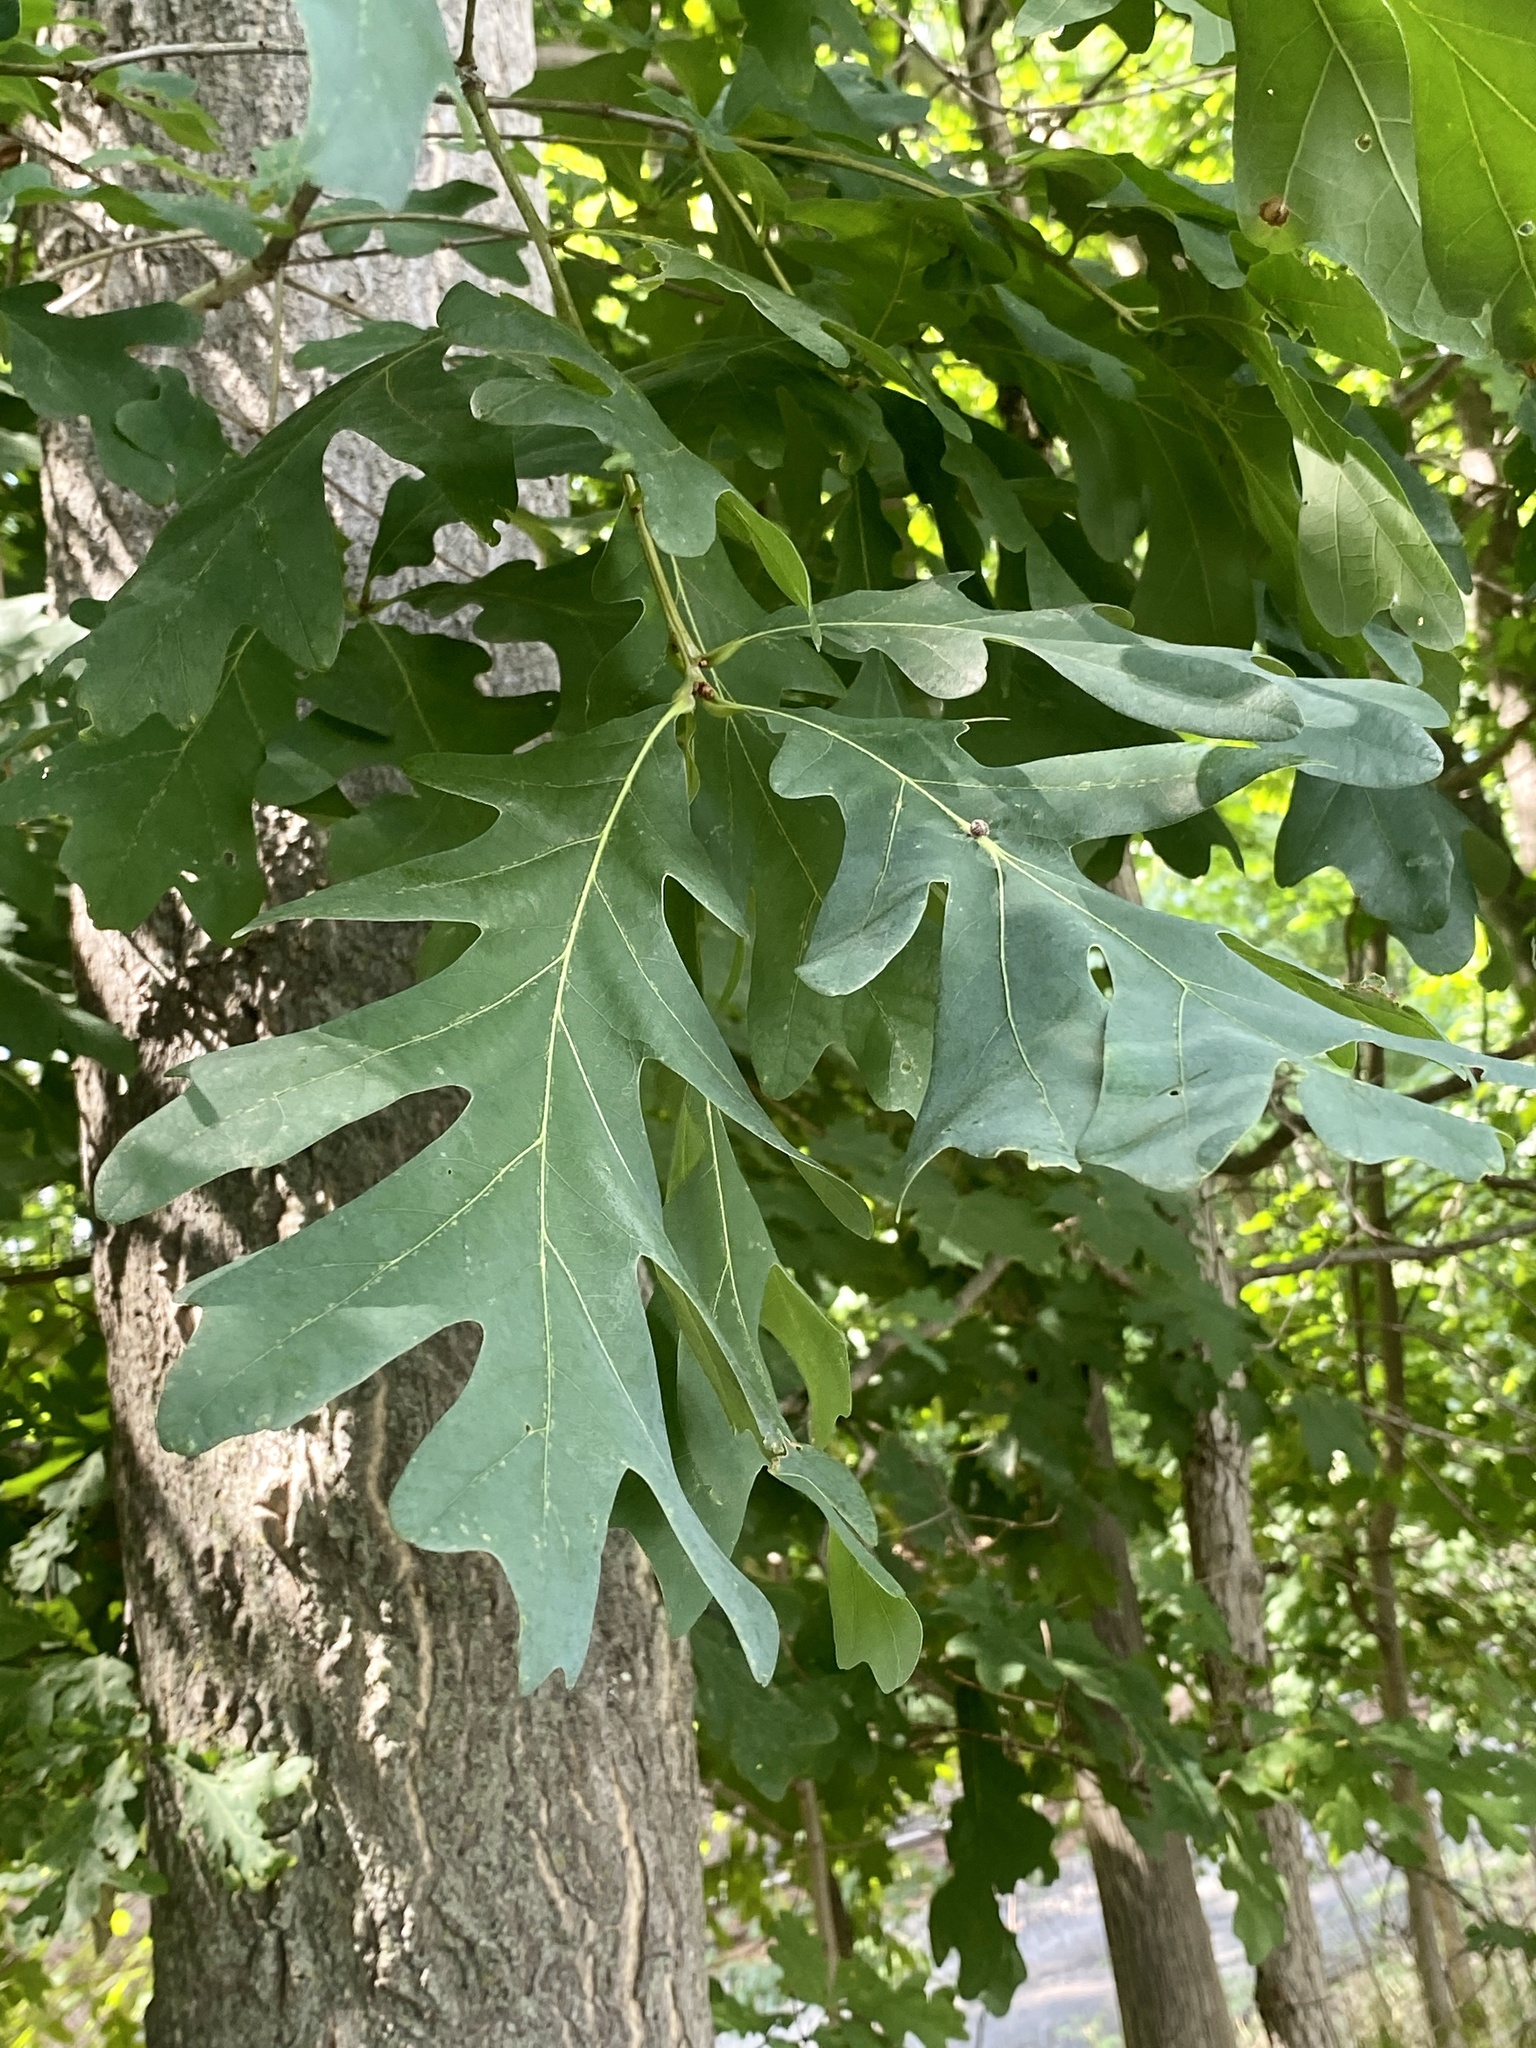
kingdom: Plantae
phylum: Tracheophyta
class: Magnoliopsida
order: Fagales
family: Fagaceae
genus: Quercus
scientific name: Quercus alba
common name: White oak
